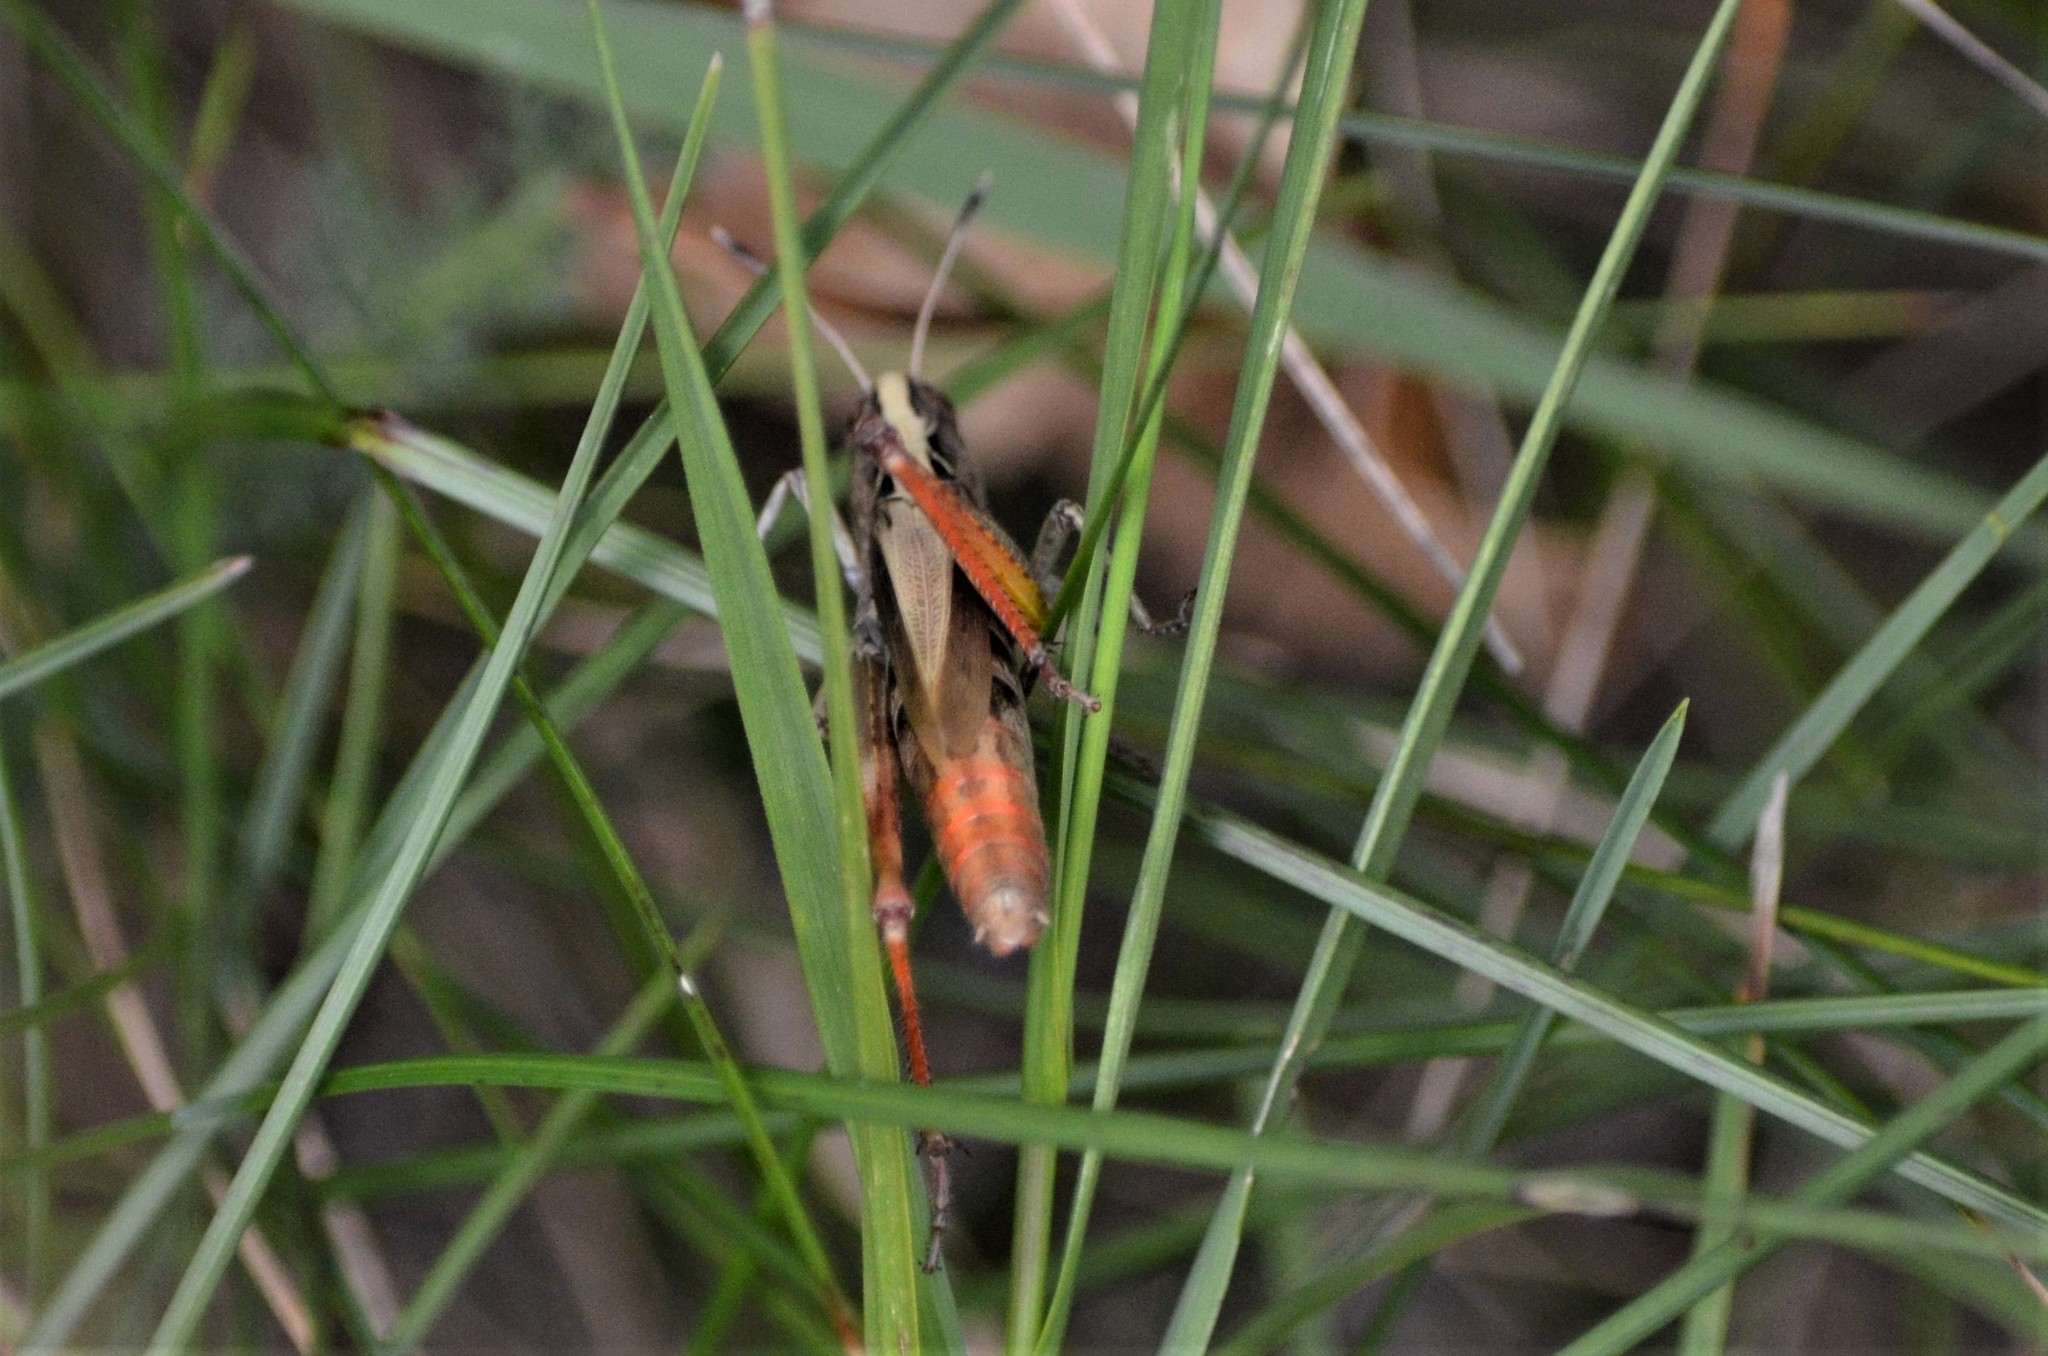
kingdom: Animalia
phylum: Arthropoda
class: Insecta
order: Orthoptera
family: Acrididae
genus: Gomphocerippus
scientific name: Gomphocerippus rufus
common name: Rufous grasshopper
